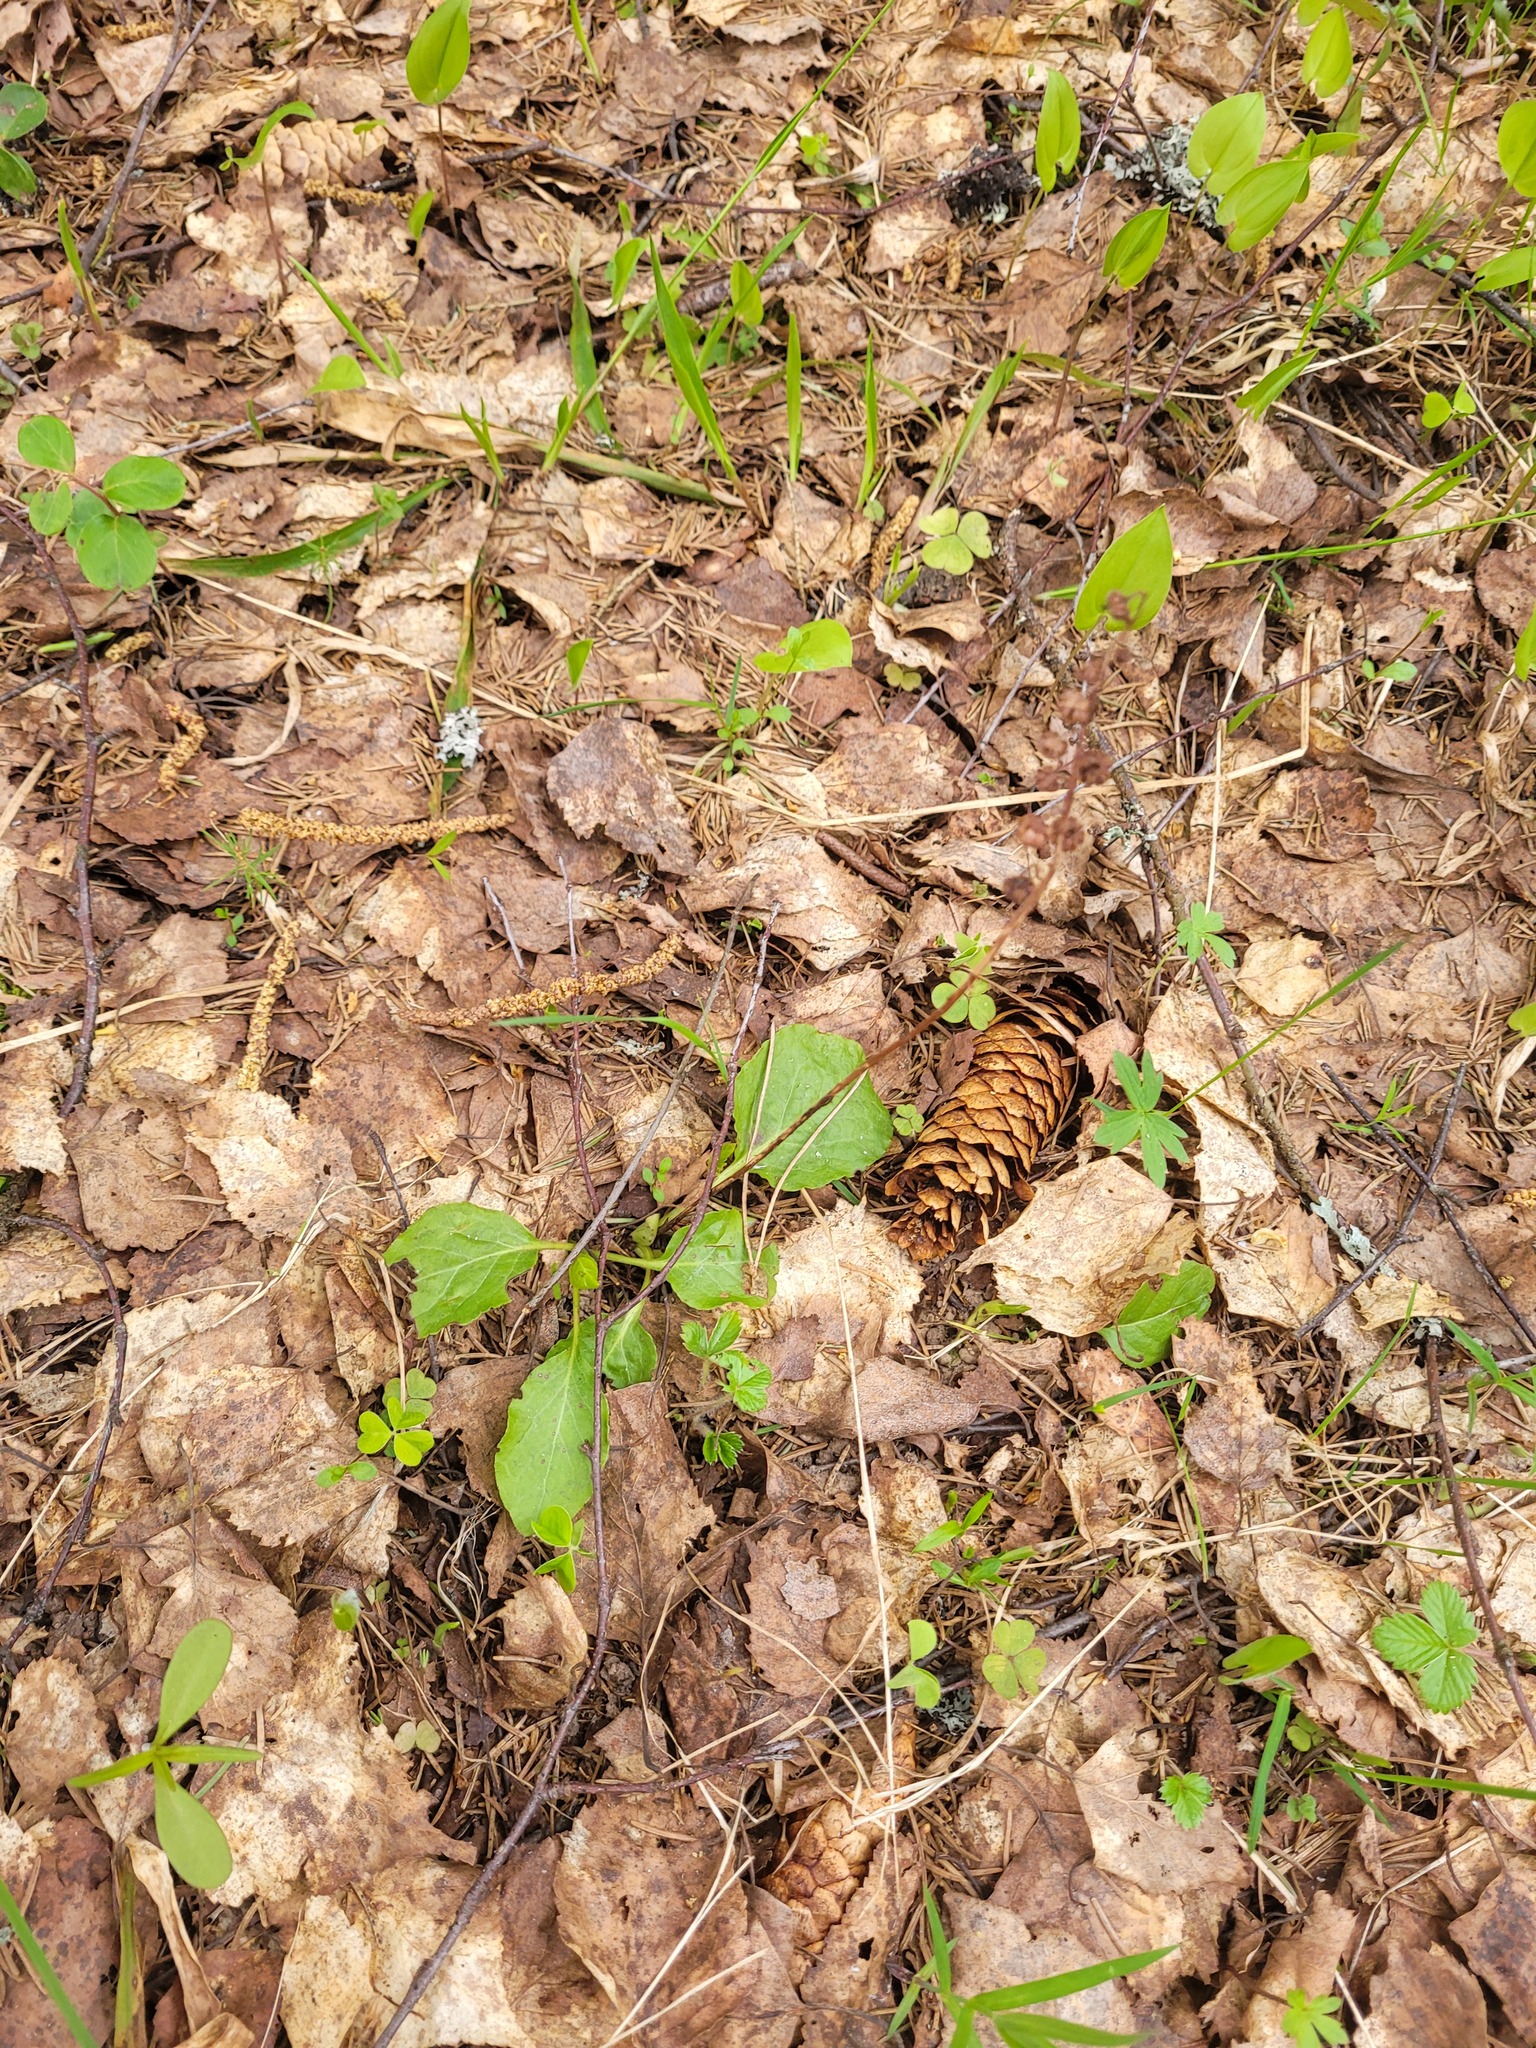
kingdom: Plantae
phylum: Tracheophyta
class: Magnoliopsida
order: Ericales
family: Ericaceae
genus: Pyrola
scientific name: Pyrola minor
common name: Common wintergreen
